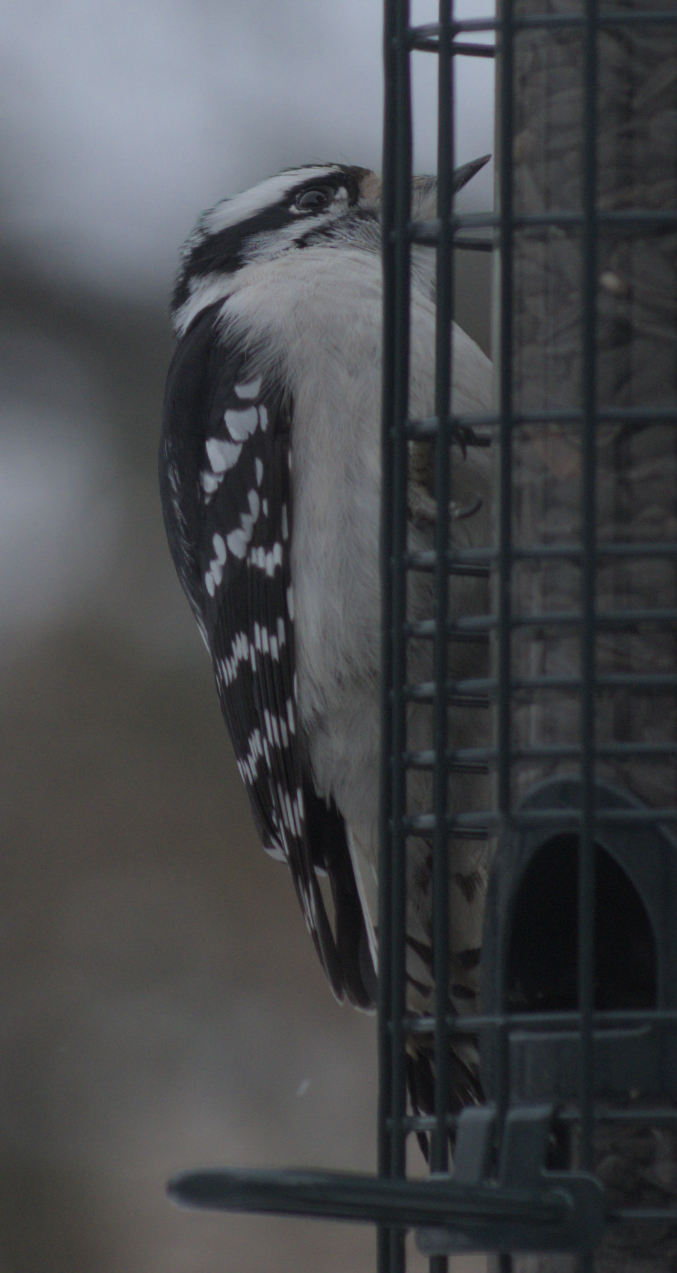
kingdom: Animalia
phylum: Chordata
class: Aves
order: Piciformes
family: Picidae
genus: Dryobates
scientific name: Dryobates pubescens
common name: Downy woodpecker
